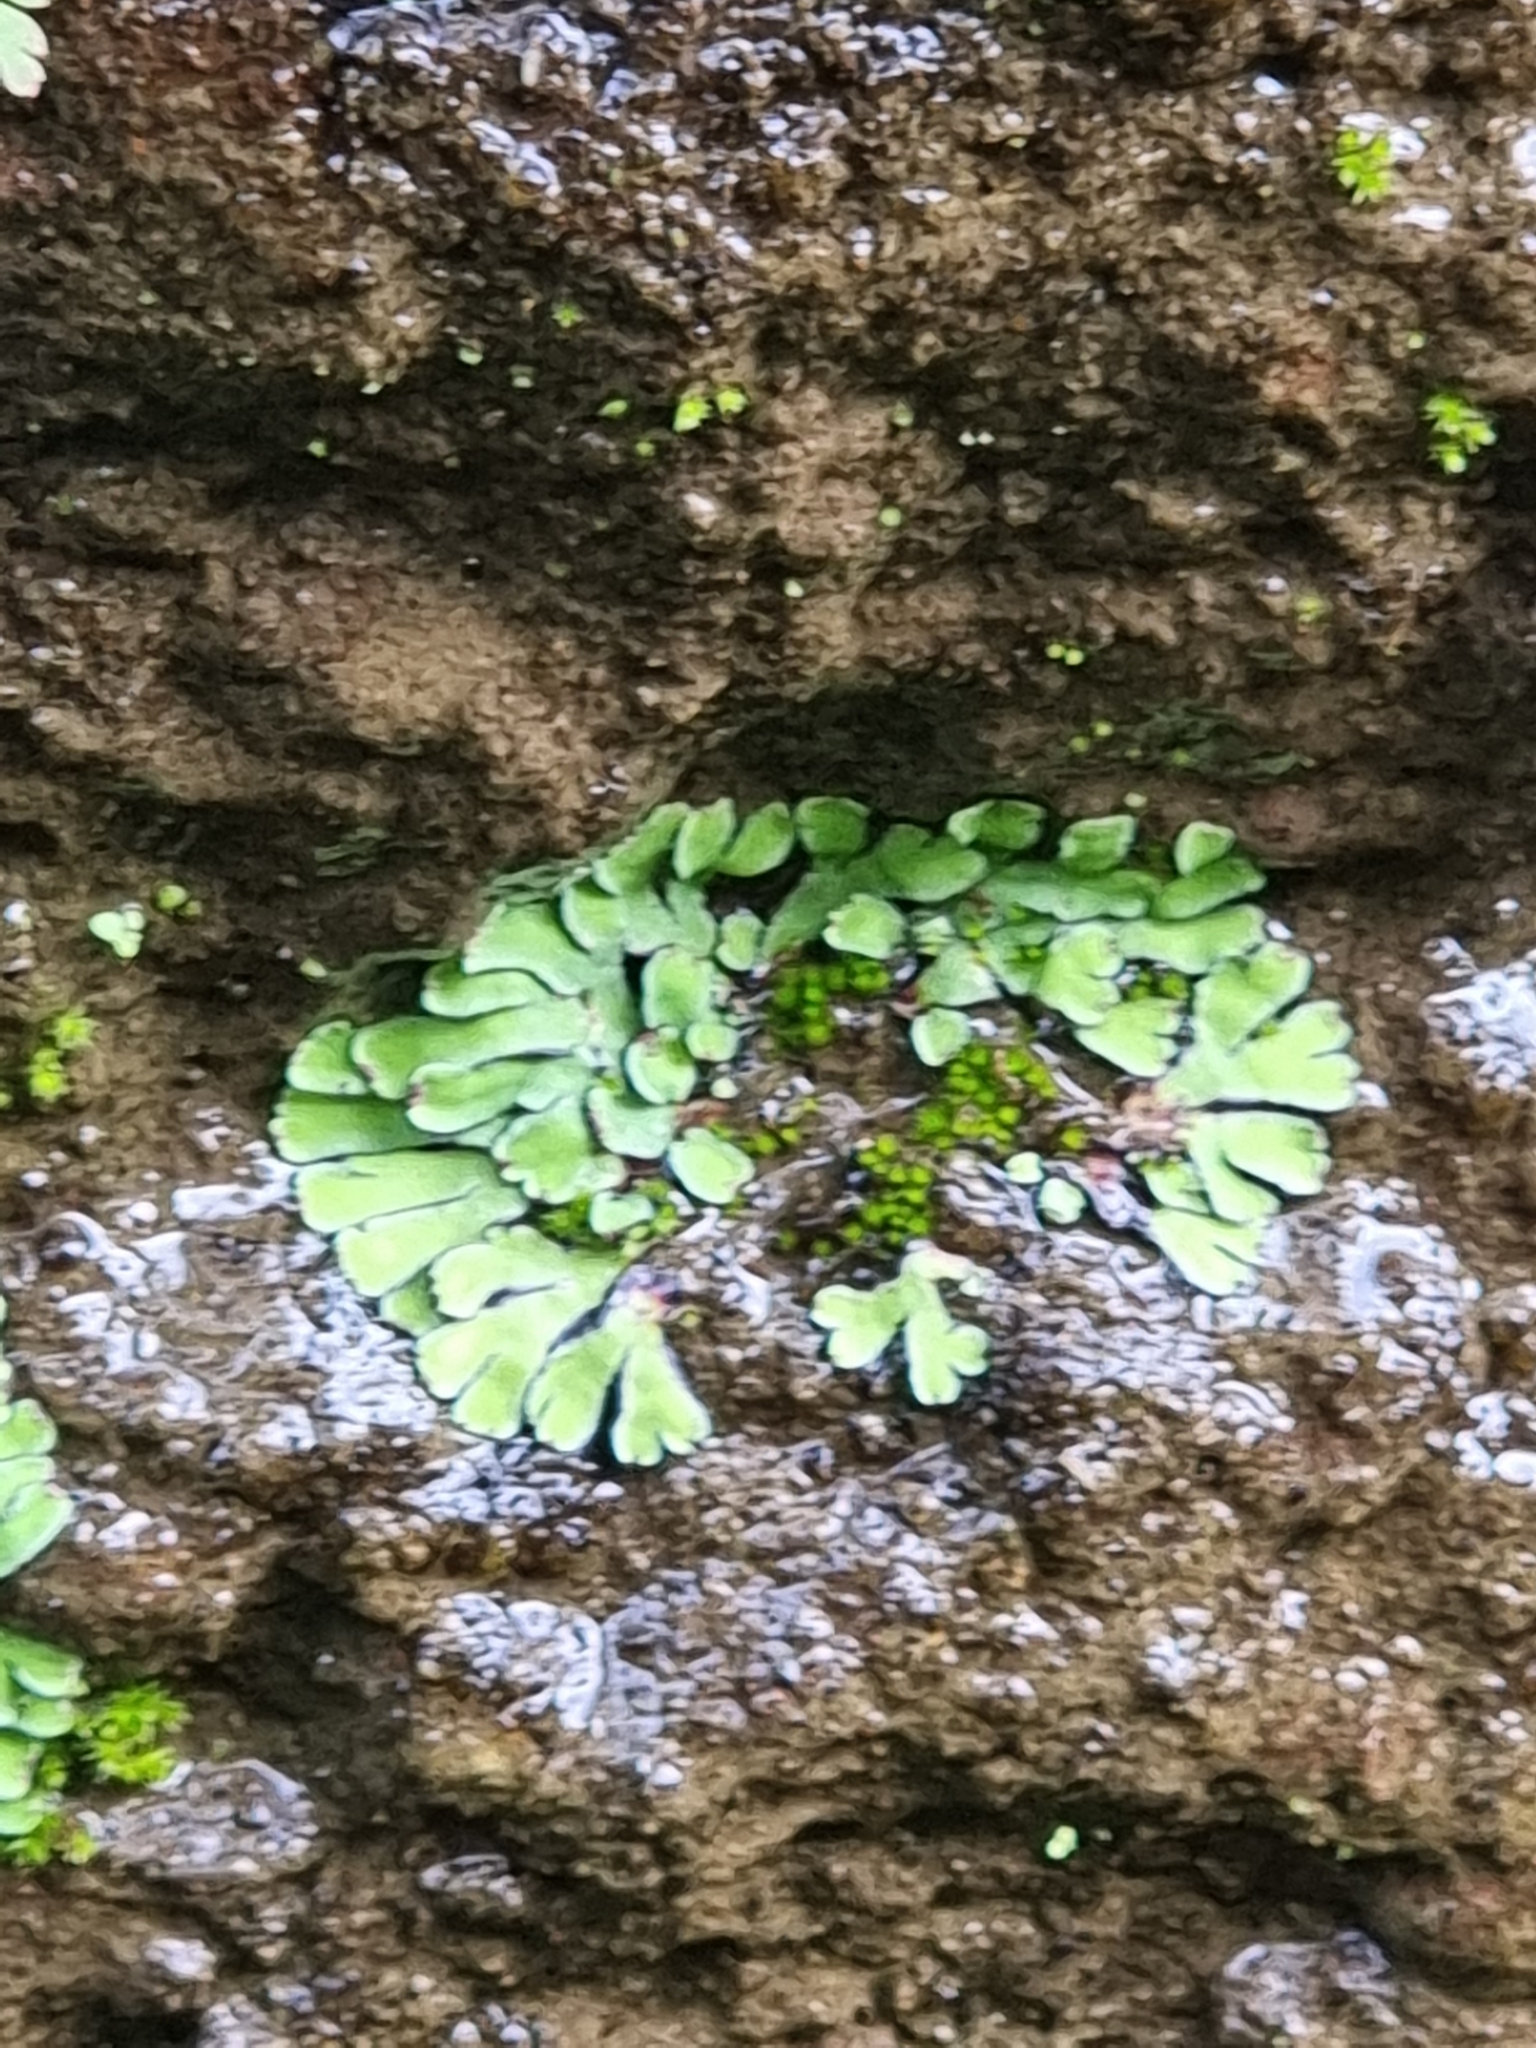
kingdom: Plantae
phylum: Marchantiophyta
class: Marchantiopsida
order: Marchantiales
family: Aytoniaceae
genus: Plagiochasma
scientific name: Plagiochasma rupestre
